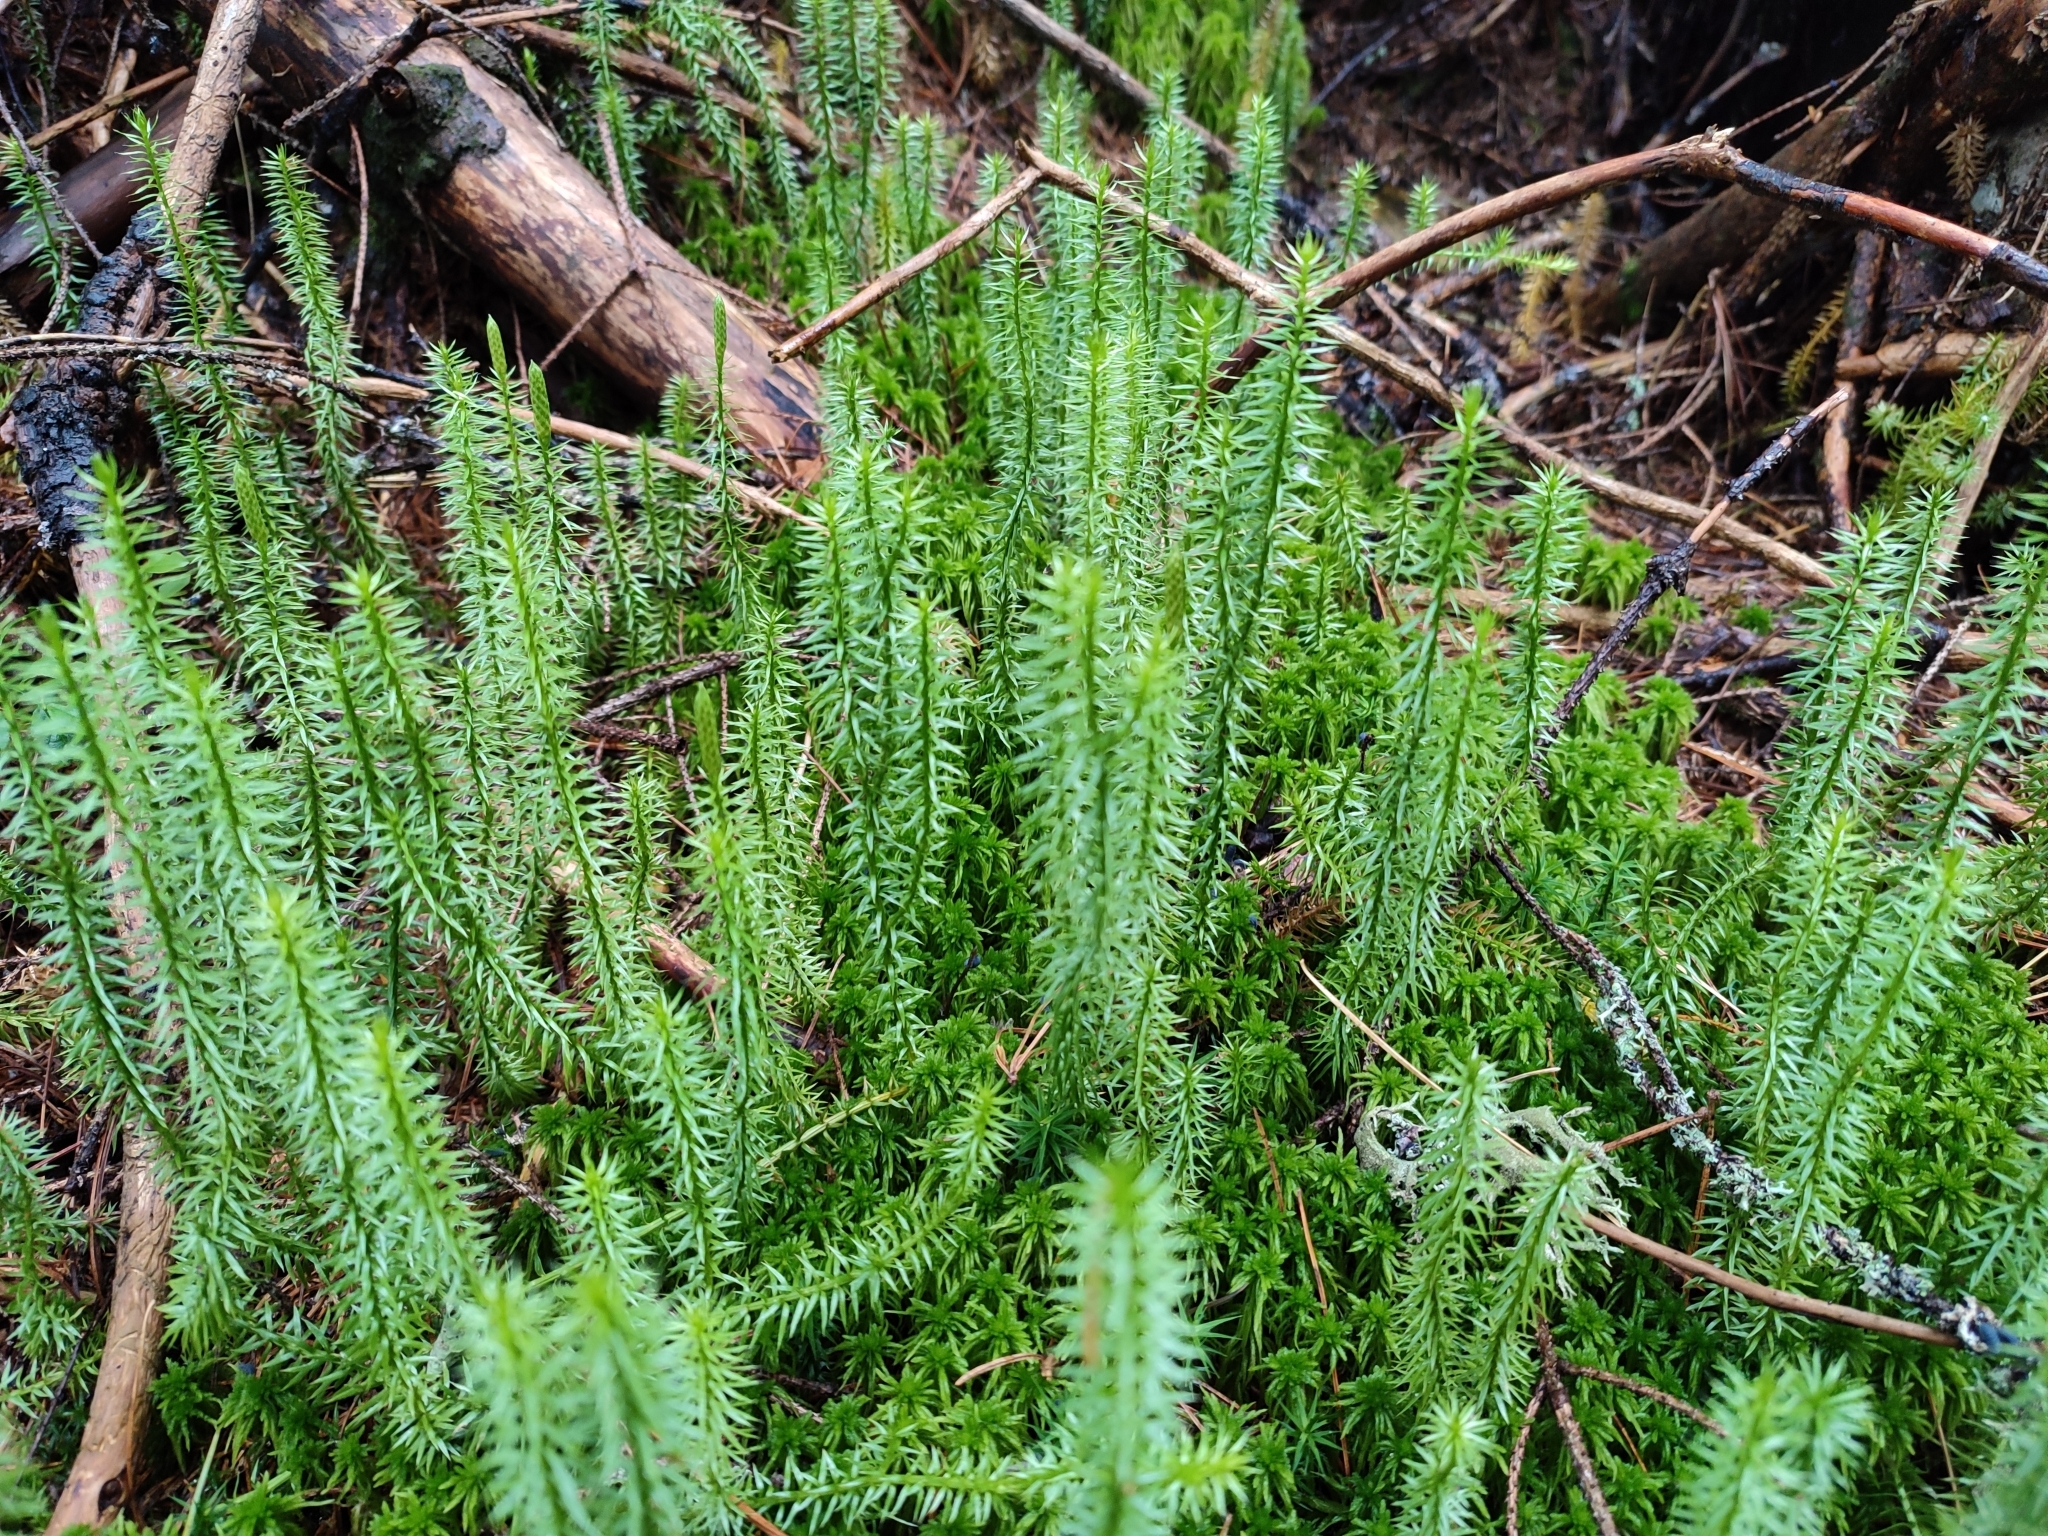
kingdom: Plantae
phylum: Tracheophyta
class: Lycopodiopsida
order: Lycopodiales
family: Lycopodiaceae
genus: Spinulum
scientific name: Spinulum annotinum
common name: Interrupted club-moss
